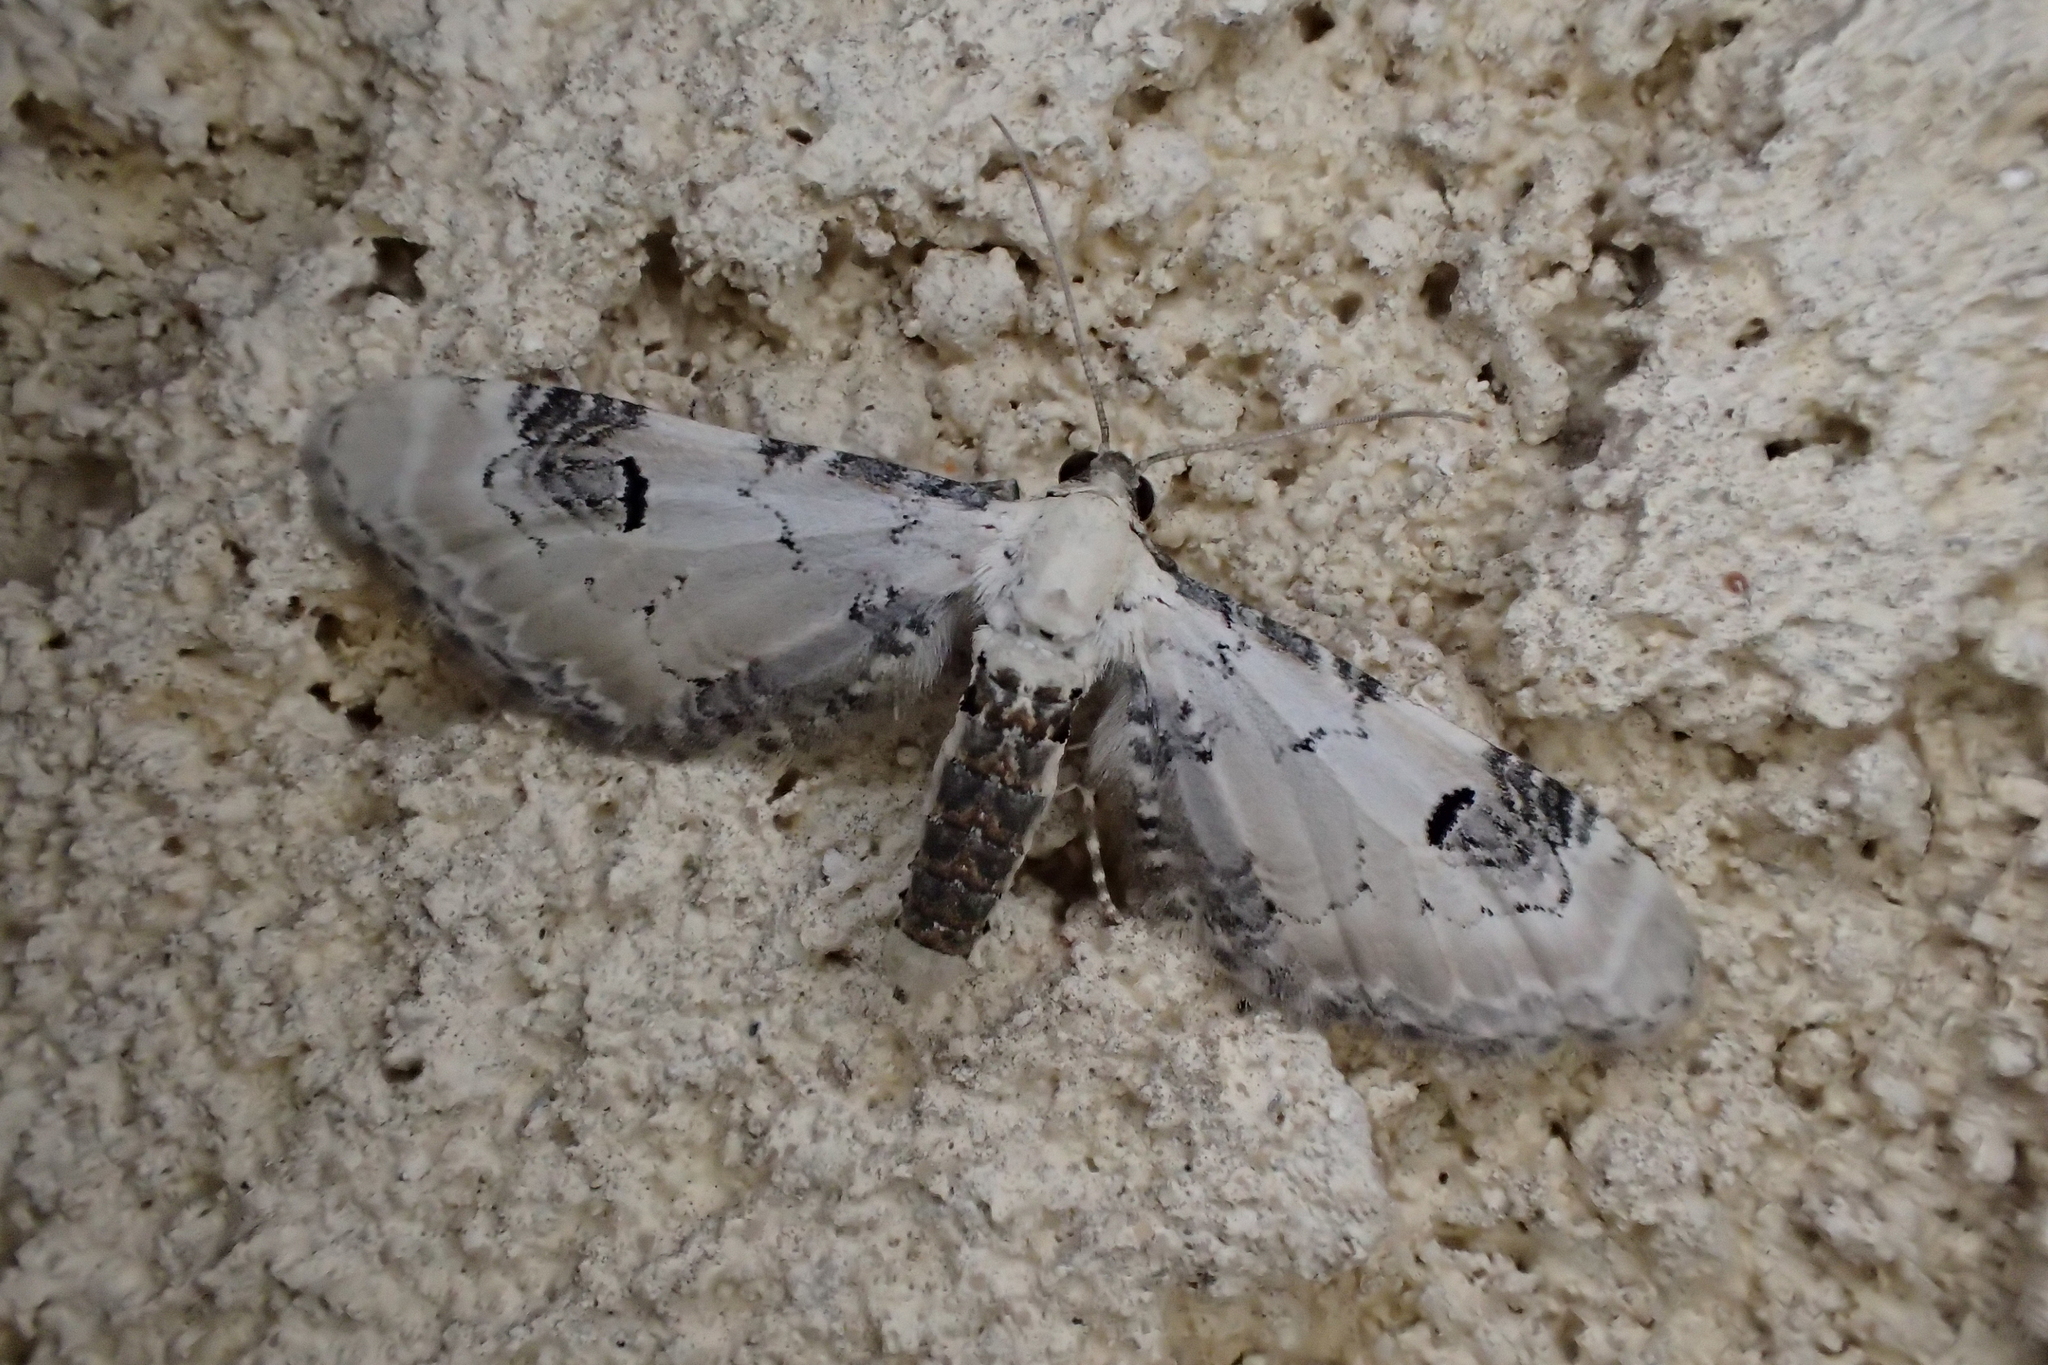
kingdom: Animalia
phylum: Arthropoda
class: Insecta
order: Lepidoptera
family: Geometridae
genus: Eupithecia
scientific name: Eupithecia centaureata
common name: Lime-speck pug
